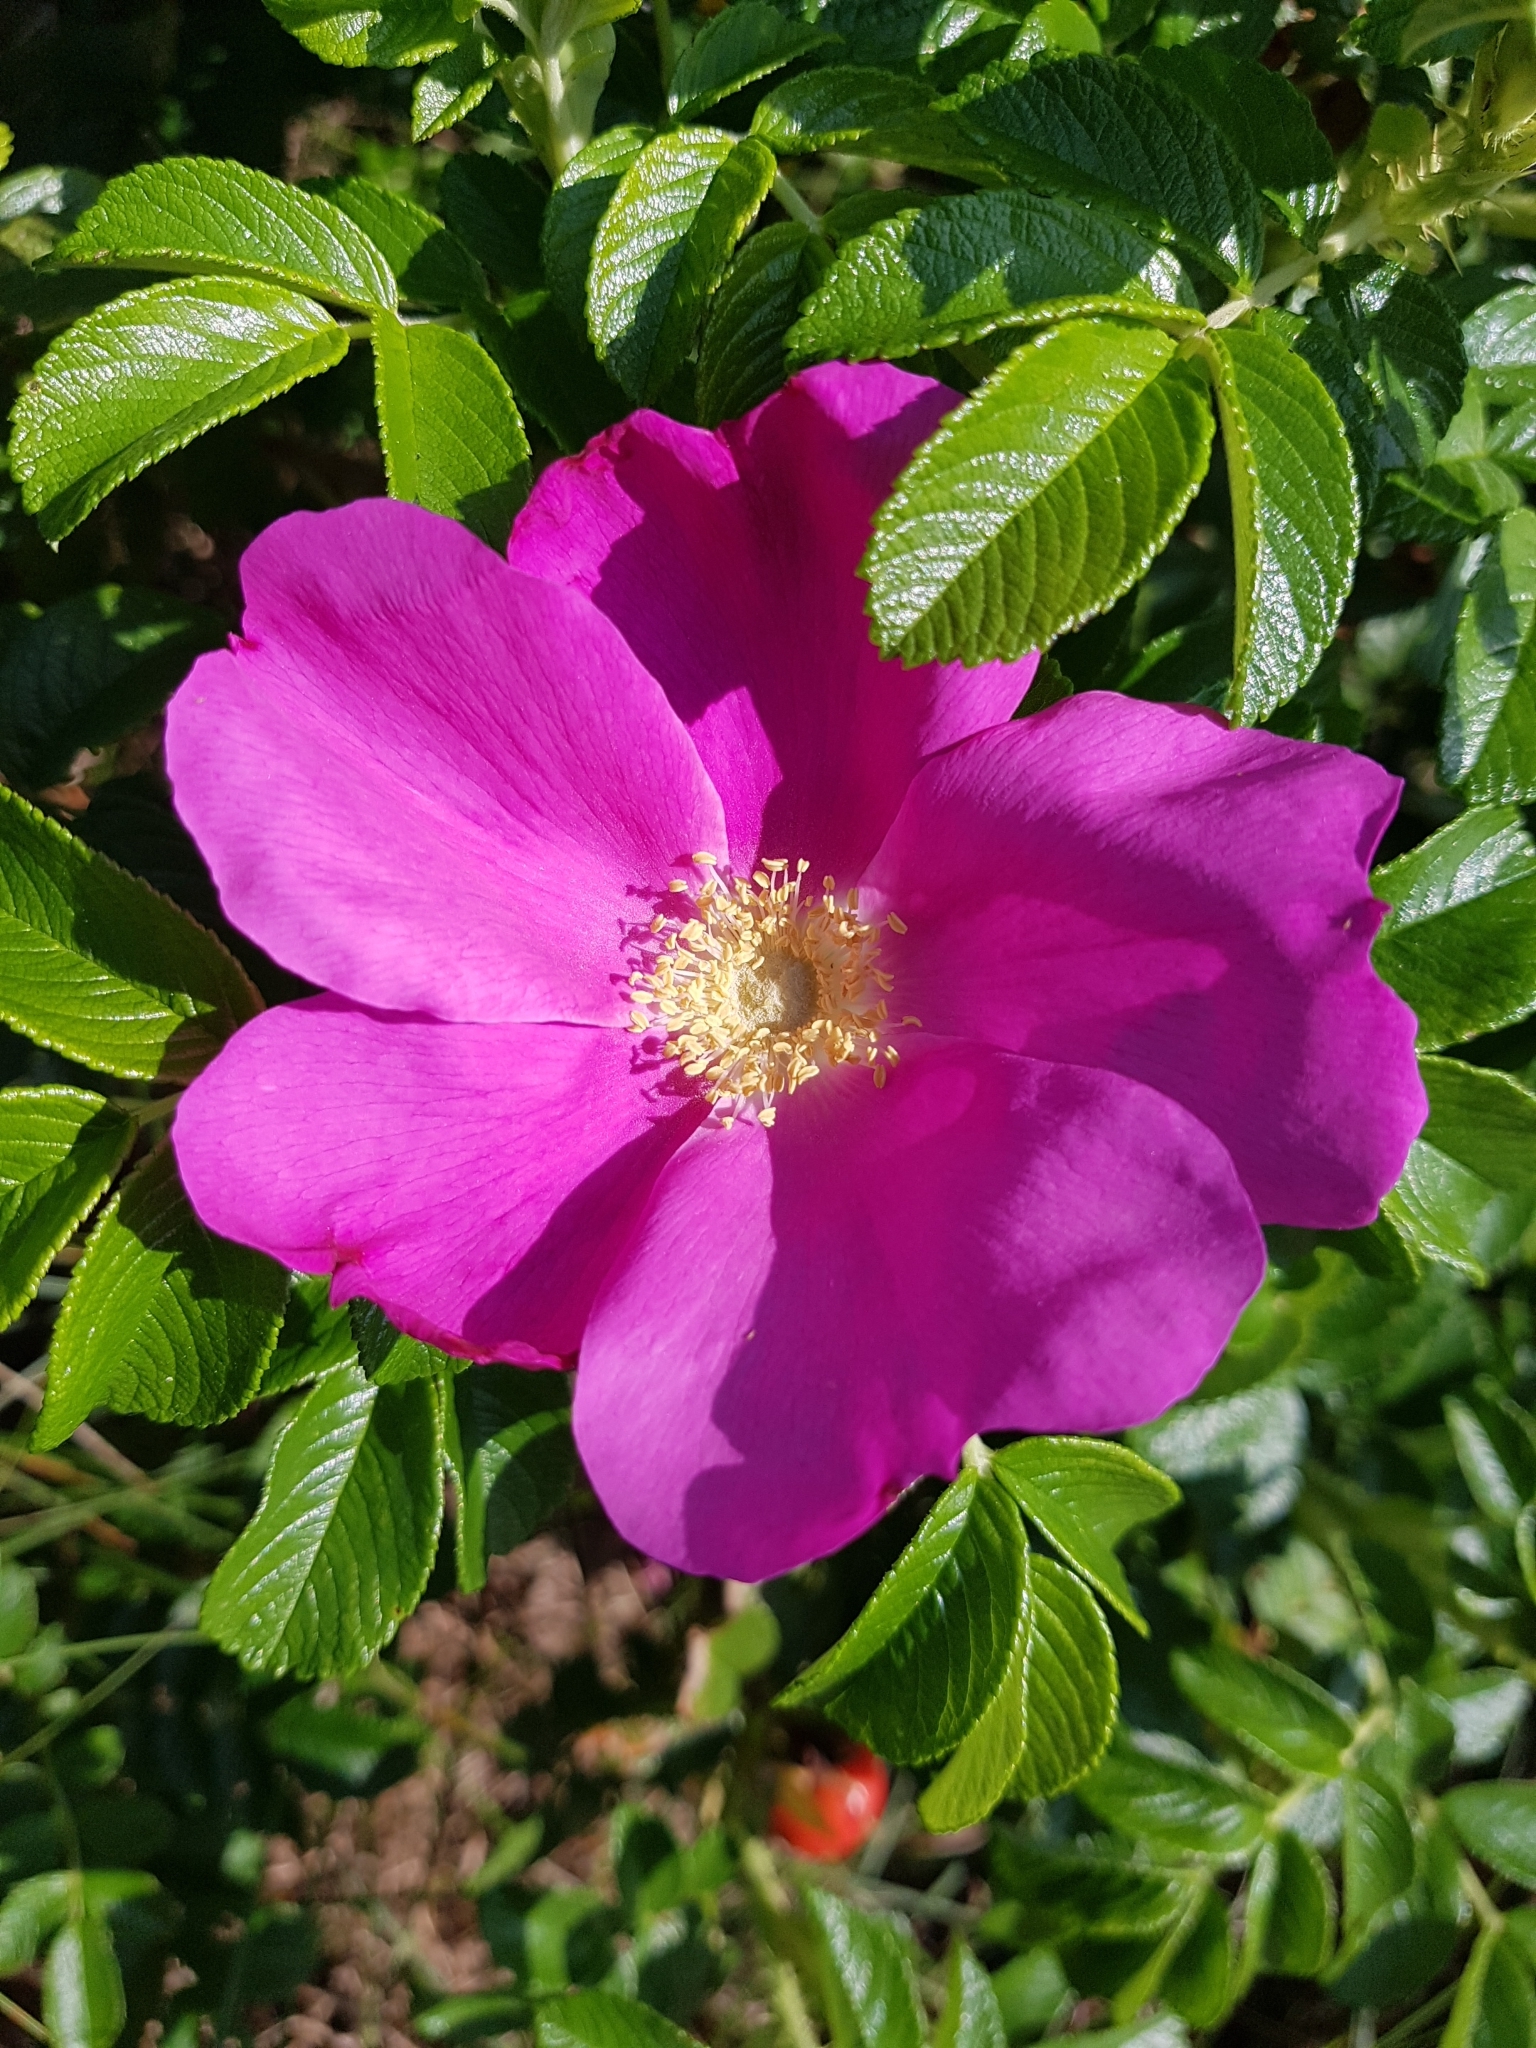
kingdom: Plantae
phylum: Tracheophyta
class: Magnoliopsida
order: Rosales
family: Rosaceae
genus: Rosa
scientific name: Rosa rugosa
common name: Japanese rose
